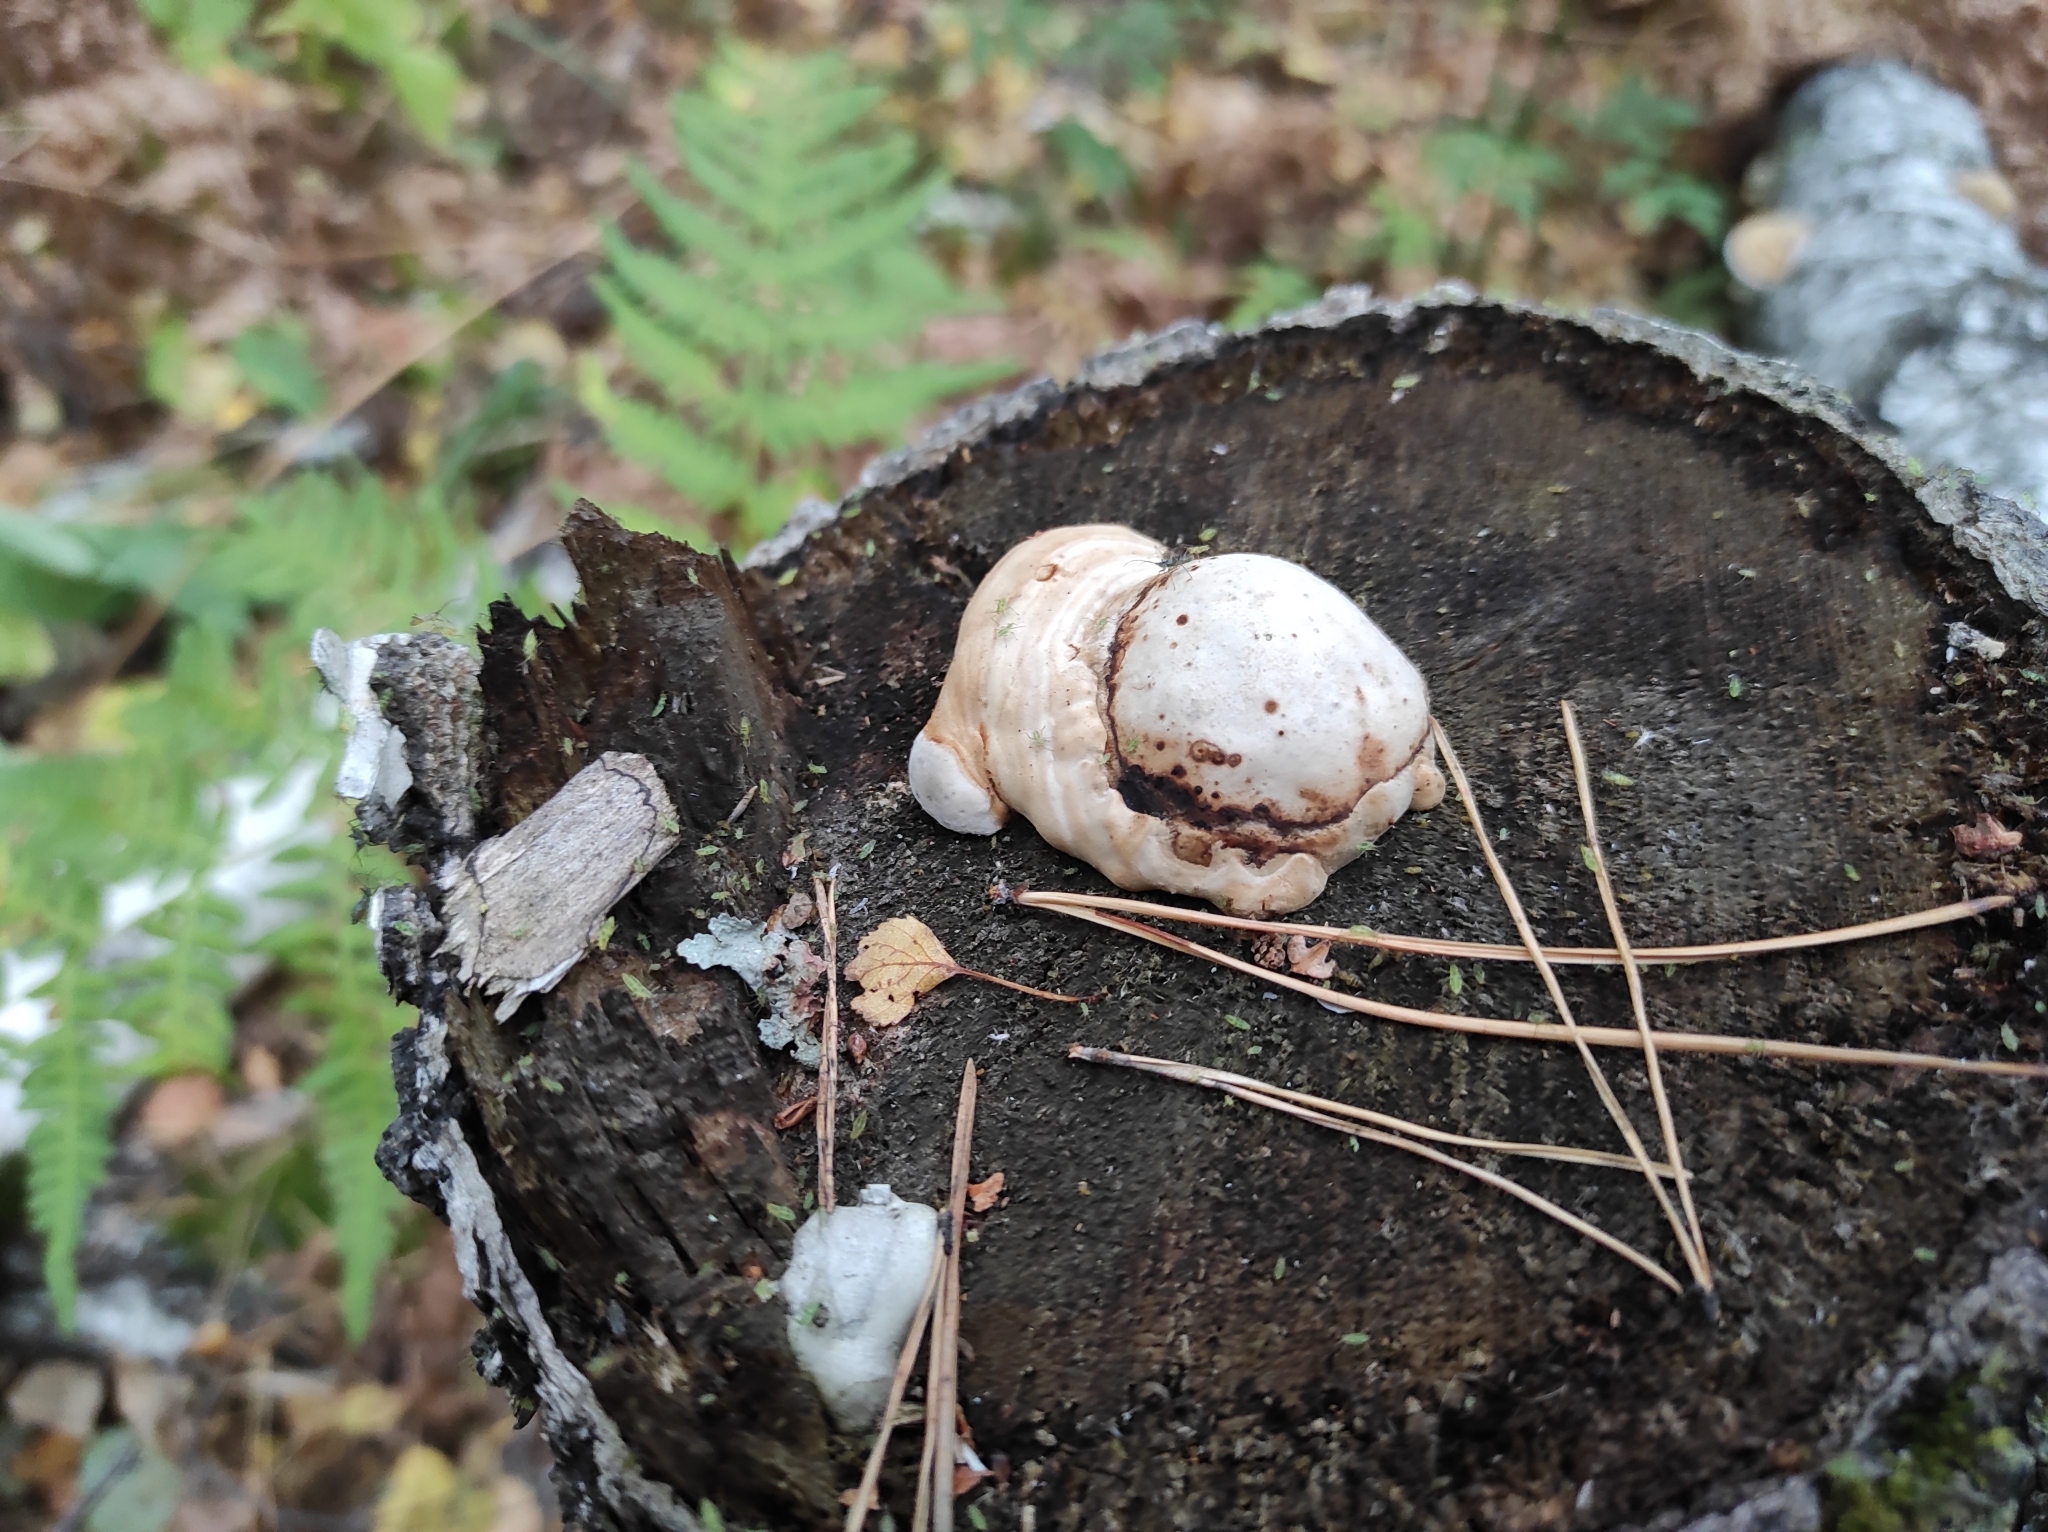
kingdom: Fungi
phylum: Basidiomycota
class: Agaricomycetes
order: Polyporales
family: Polyporaceae
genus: Fomes
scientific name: Fomes fomentarius
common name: Hoof fungus
